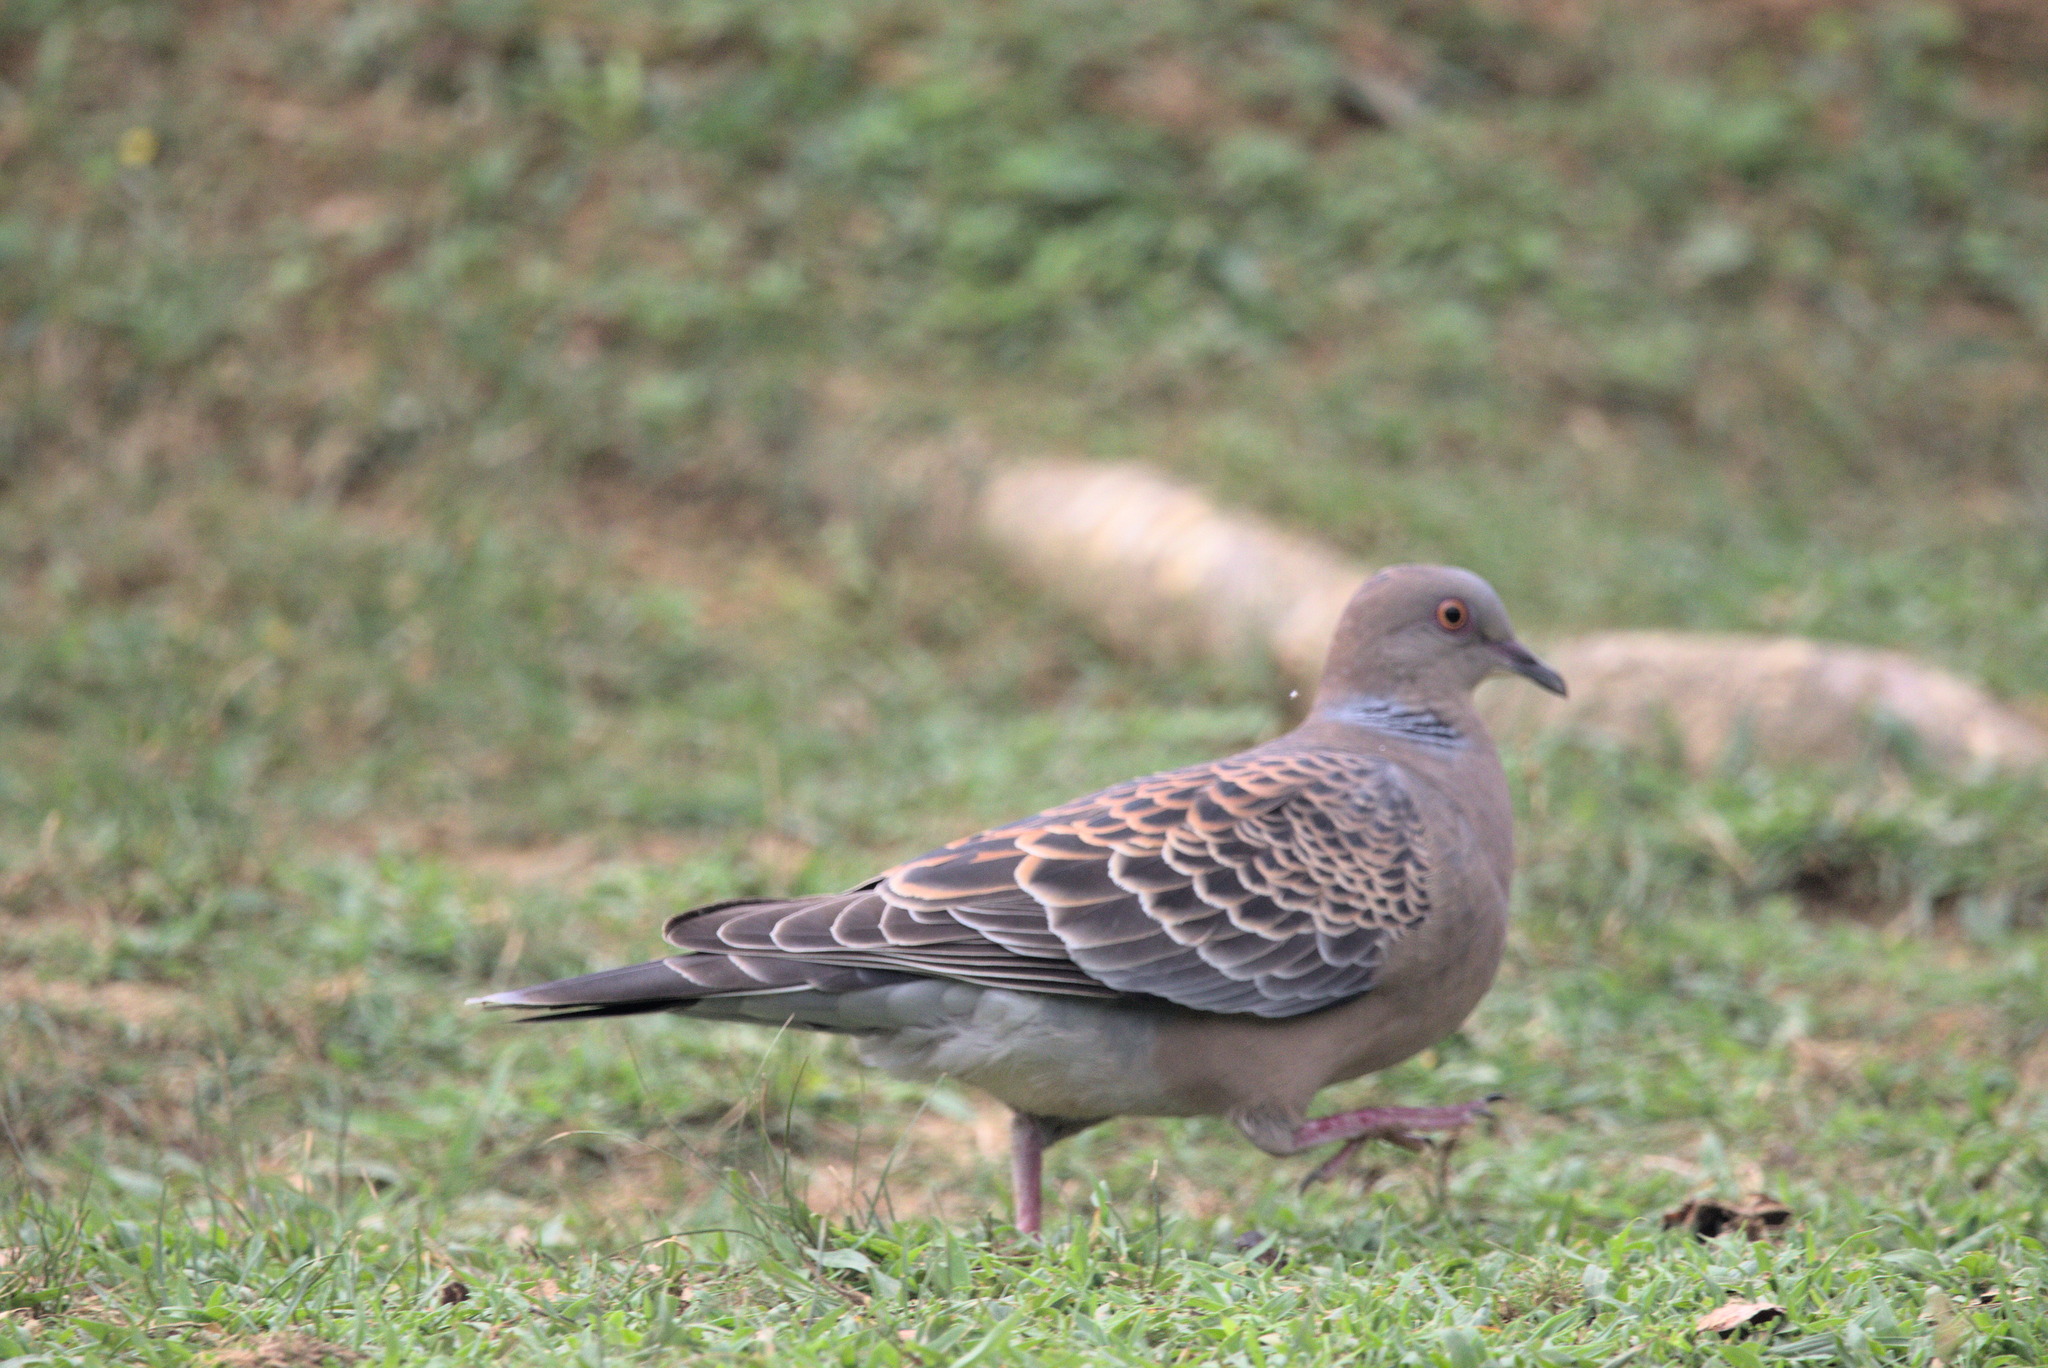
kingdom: Animalia
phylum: Chordata
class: Aves
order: Columbiformes
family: Columbidae
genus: Streptopelia
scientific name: Streptopelia orientalis
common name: Oriental turtle dove
